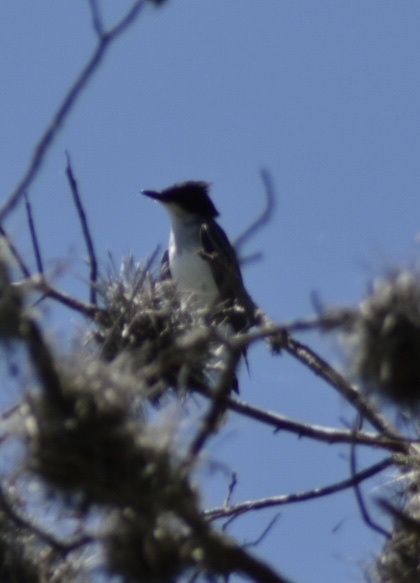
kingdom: Animalia
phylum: Chordata
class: Aves
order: Passeriformes
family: Tyrannidae
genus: Tyrannus
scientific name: Tyrannus tyrannus
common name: Eastern kingbird
